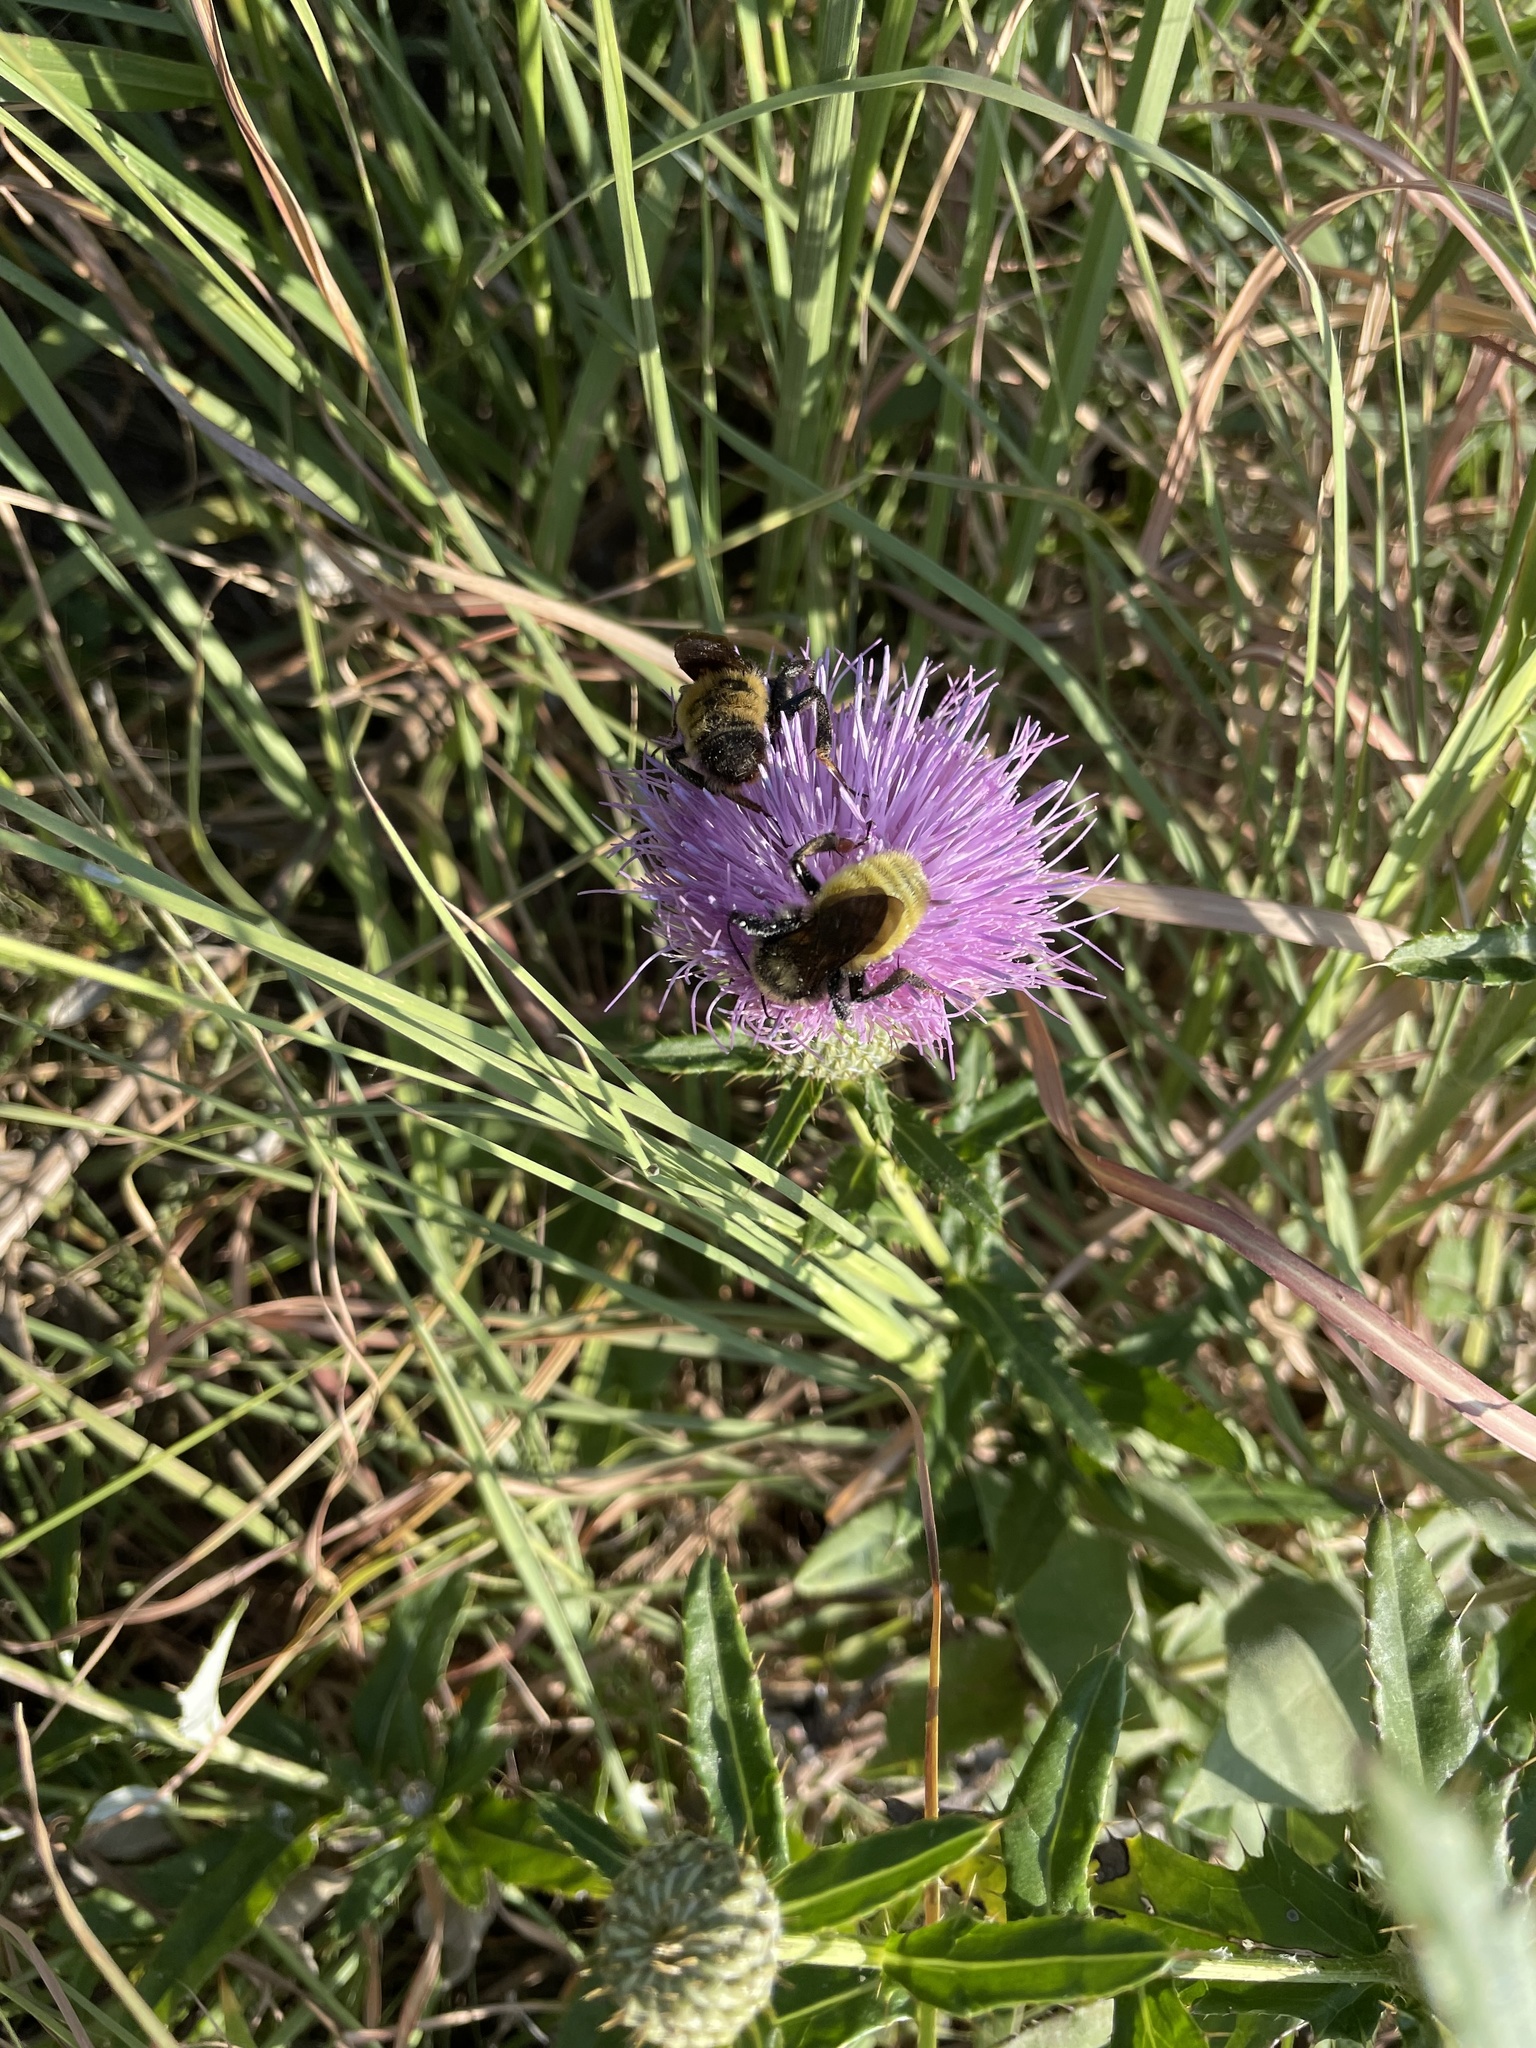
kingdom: Animalia
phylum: Arthropoda
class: Insecta
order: Hymenoptera
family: Apidae
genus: Bombus
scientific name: Bombus pensylvanicus
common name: Bumble bee
